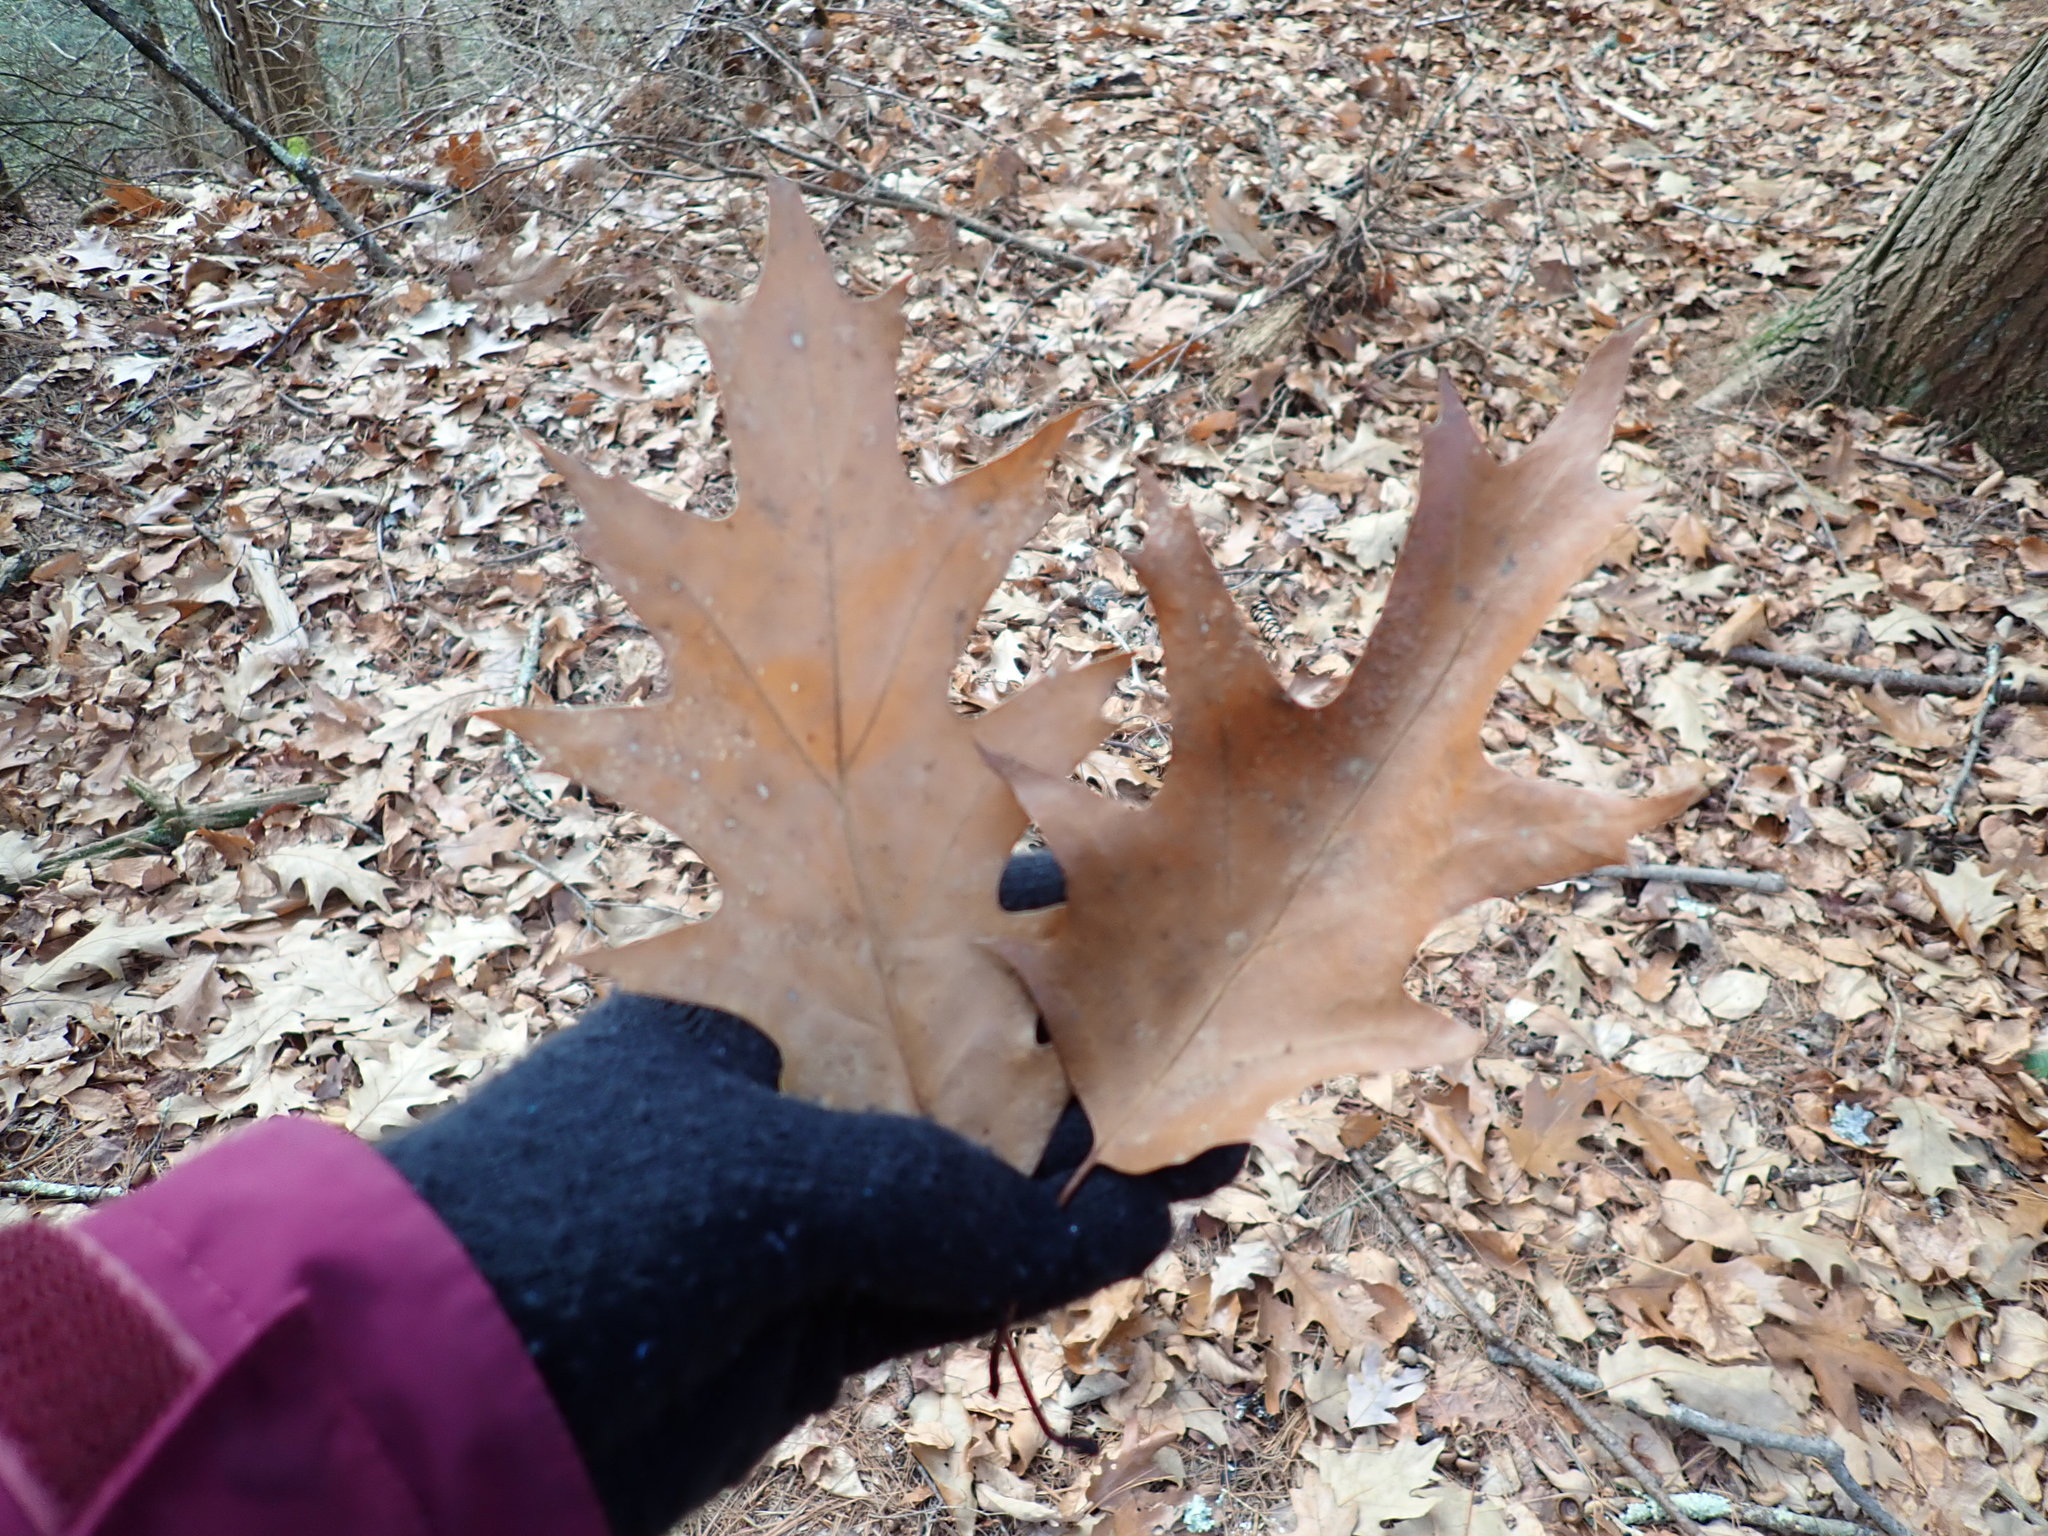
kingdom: Plantae
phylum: Tracheophyta
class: Magnoliopsida
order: Fagales
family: Fagaceae
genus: Quercus
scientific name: Quercus rubra
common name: Red oak
